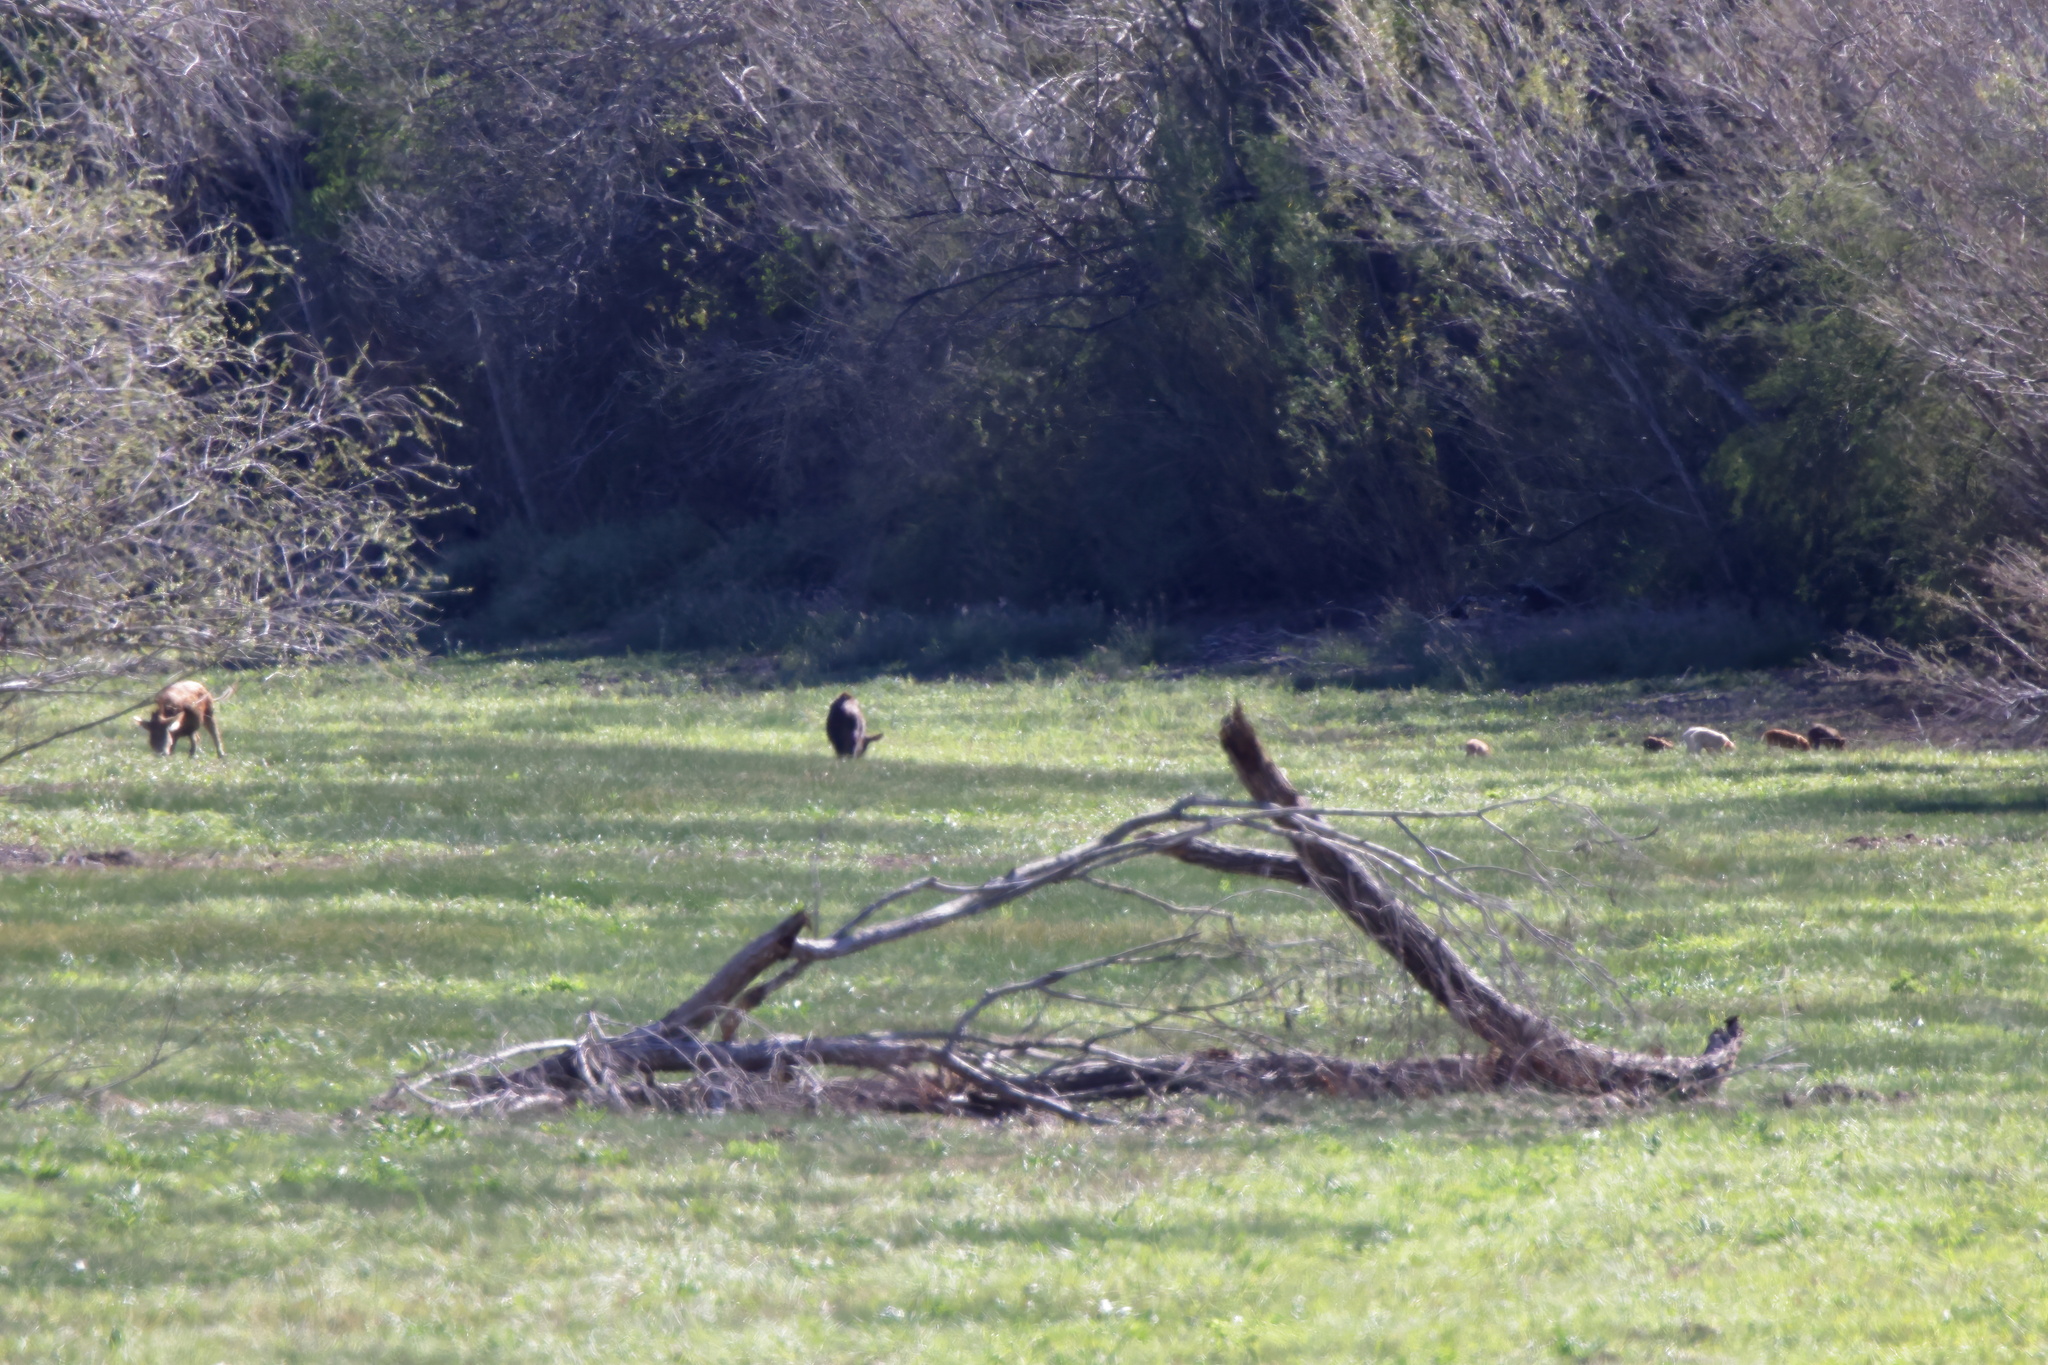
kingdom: Animalia
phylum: Chordata
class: Mammalia
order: Artiodactyla
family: Suidae
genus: Sus
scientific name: Sus scrofa
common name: Wild boar
